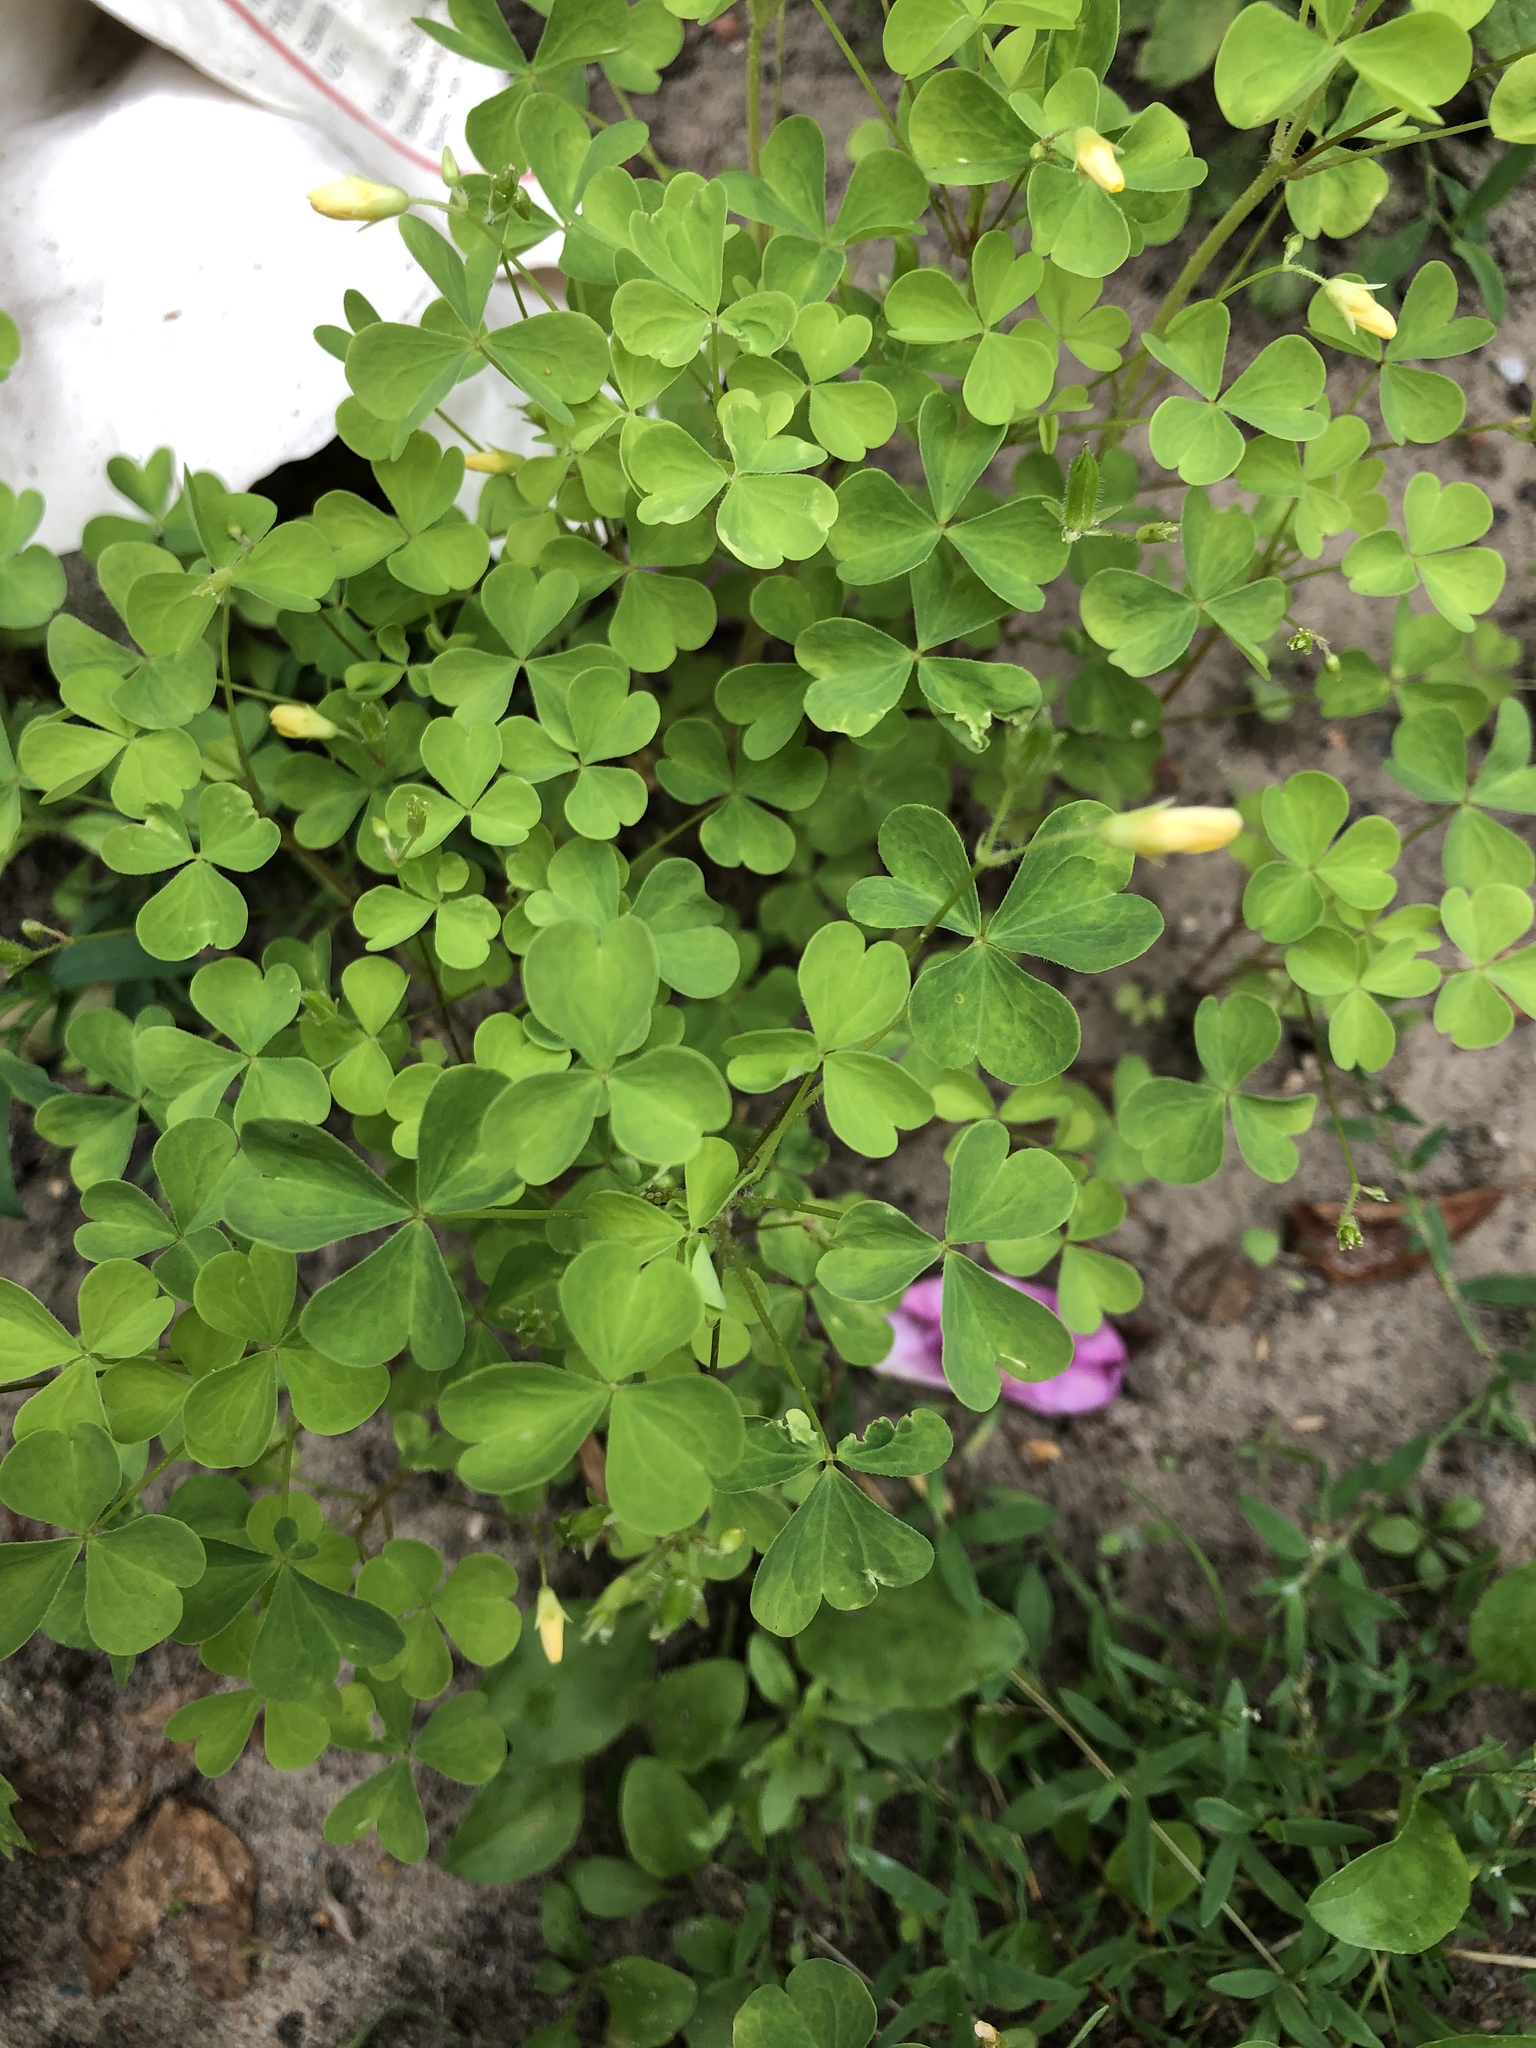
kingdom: Plantae
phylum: Tracheophyta
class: Magnoliopsida
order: Oxalidales
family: Oxalidaceae
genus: Oxalis
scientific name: Oxalis stricta
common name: Upright yellow-sorrel
